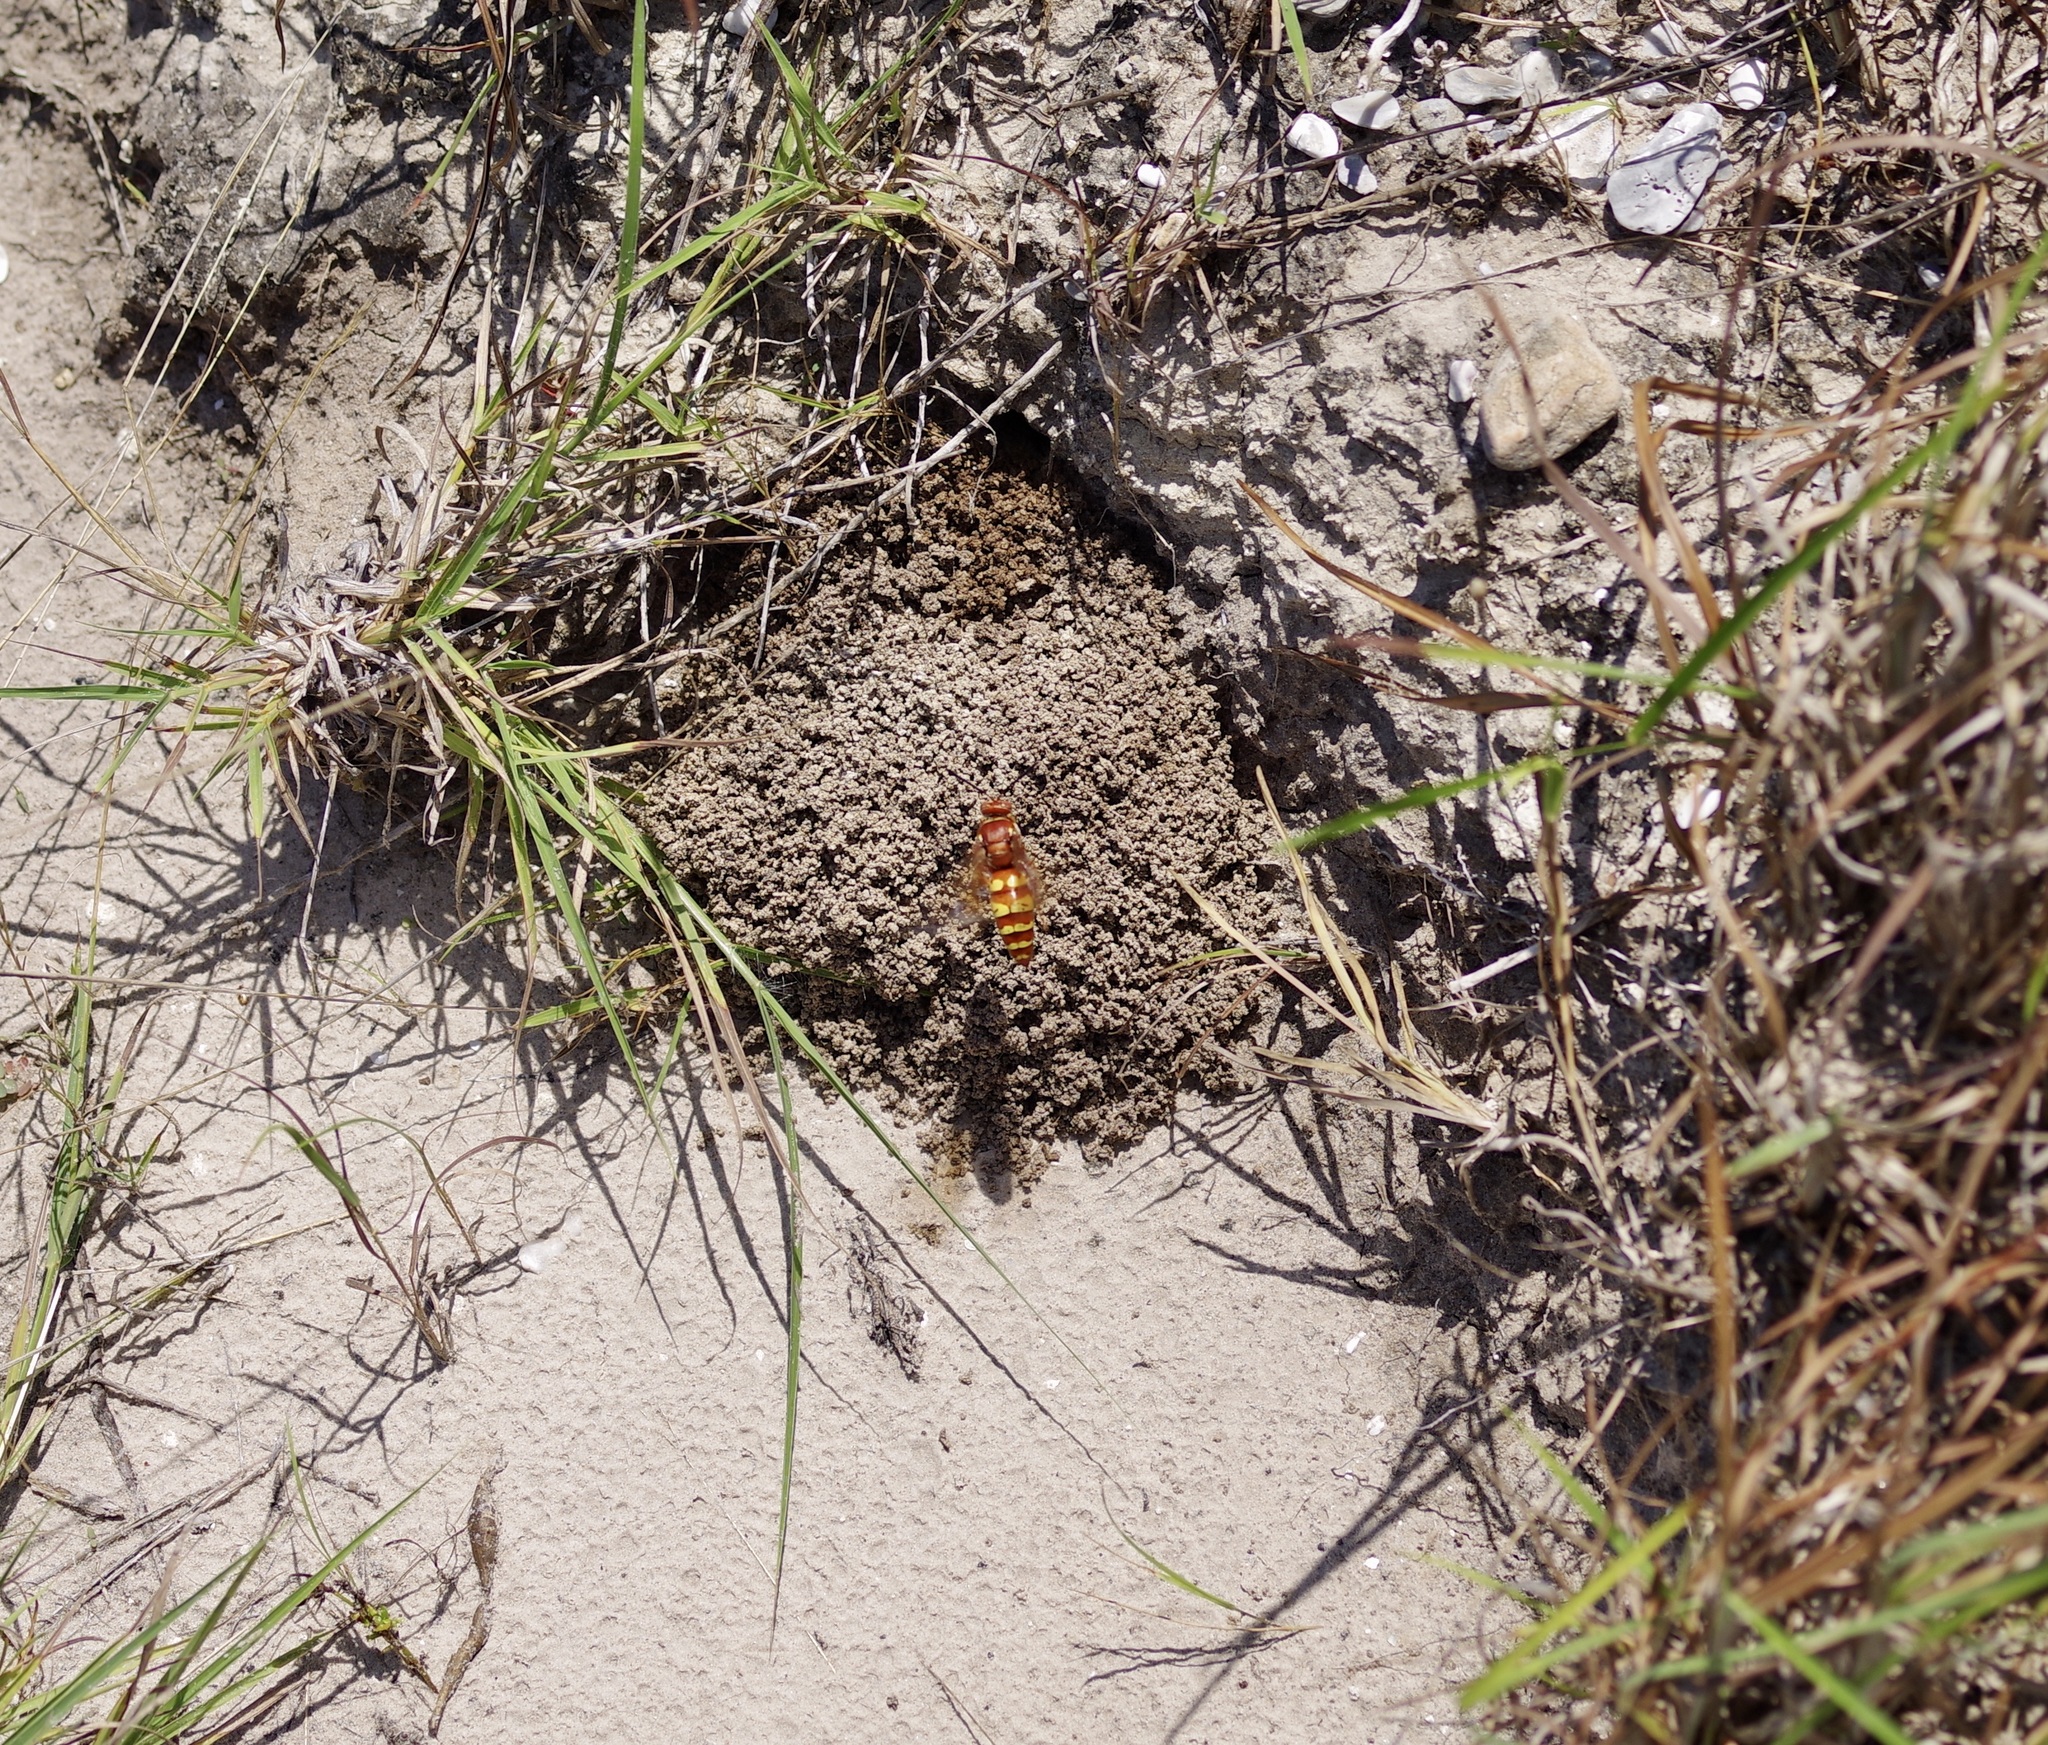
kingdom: Animalia
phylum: Arthropoda
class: Insecta
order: Hymenoptera
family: Crabronidae
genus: Sphecius
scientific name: Sphecius grandis
